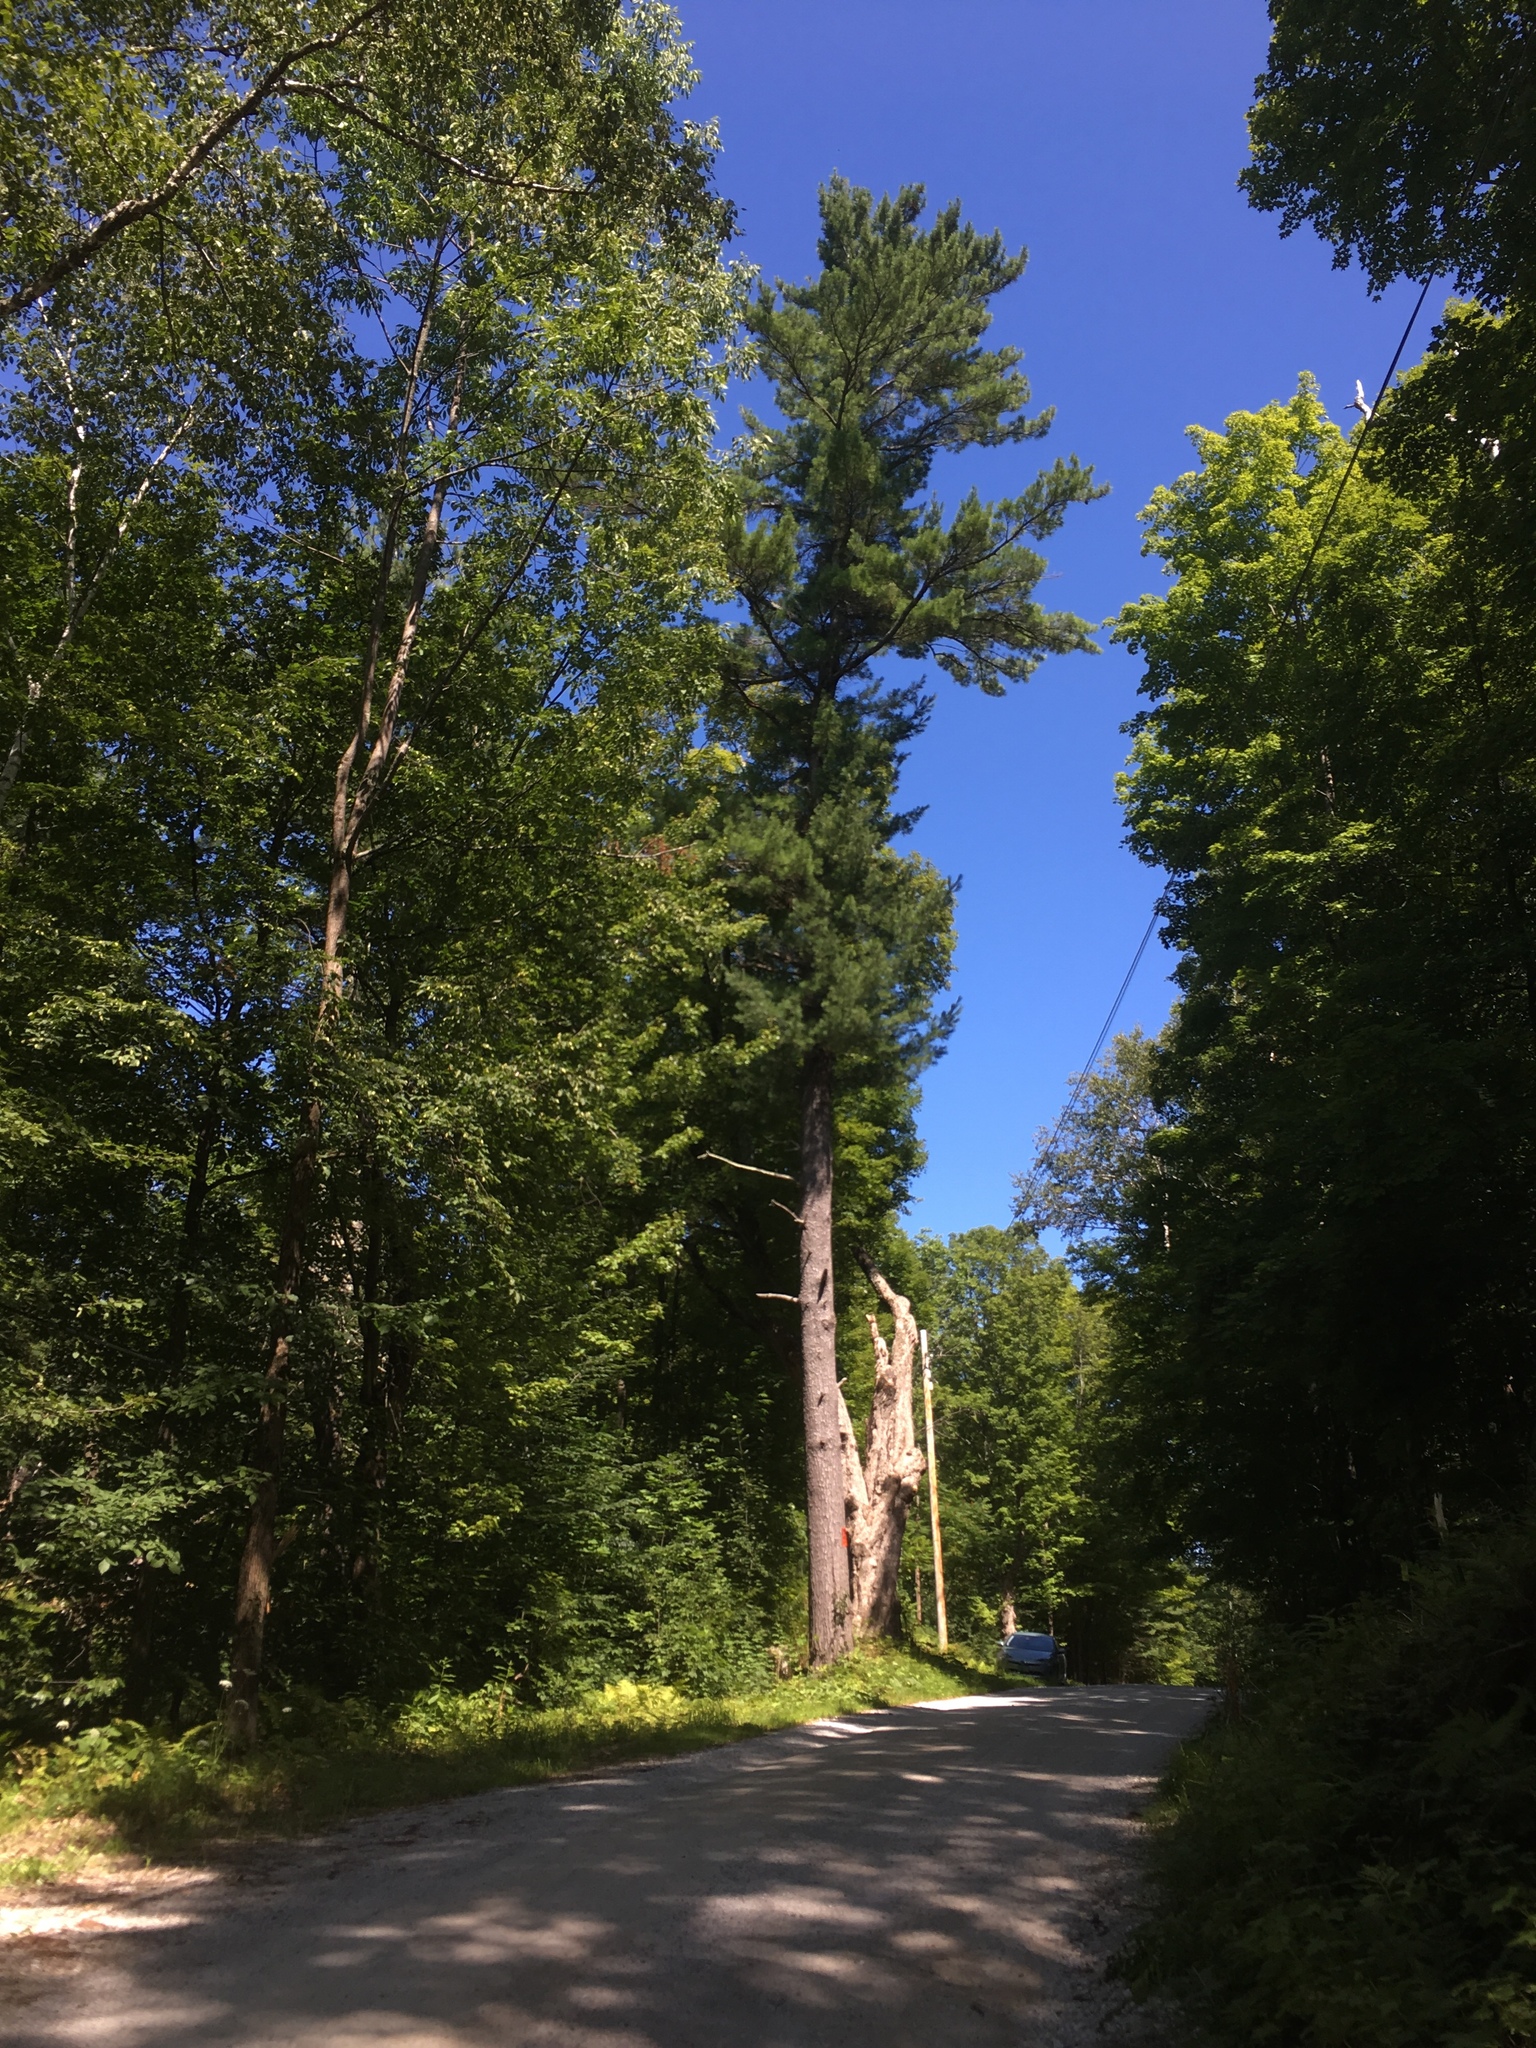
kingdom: Plantae
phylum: Tracheophyta
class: Pinopsida
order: Pinales
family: Pinaceae
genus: Pinus
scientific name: Pinus strobus
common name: Weymouth pine
